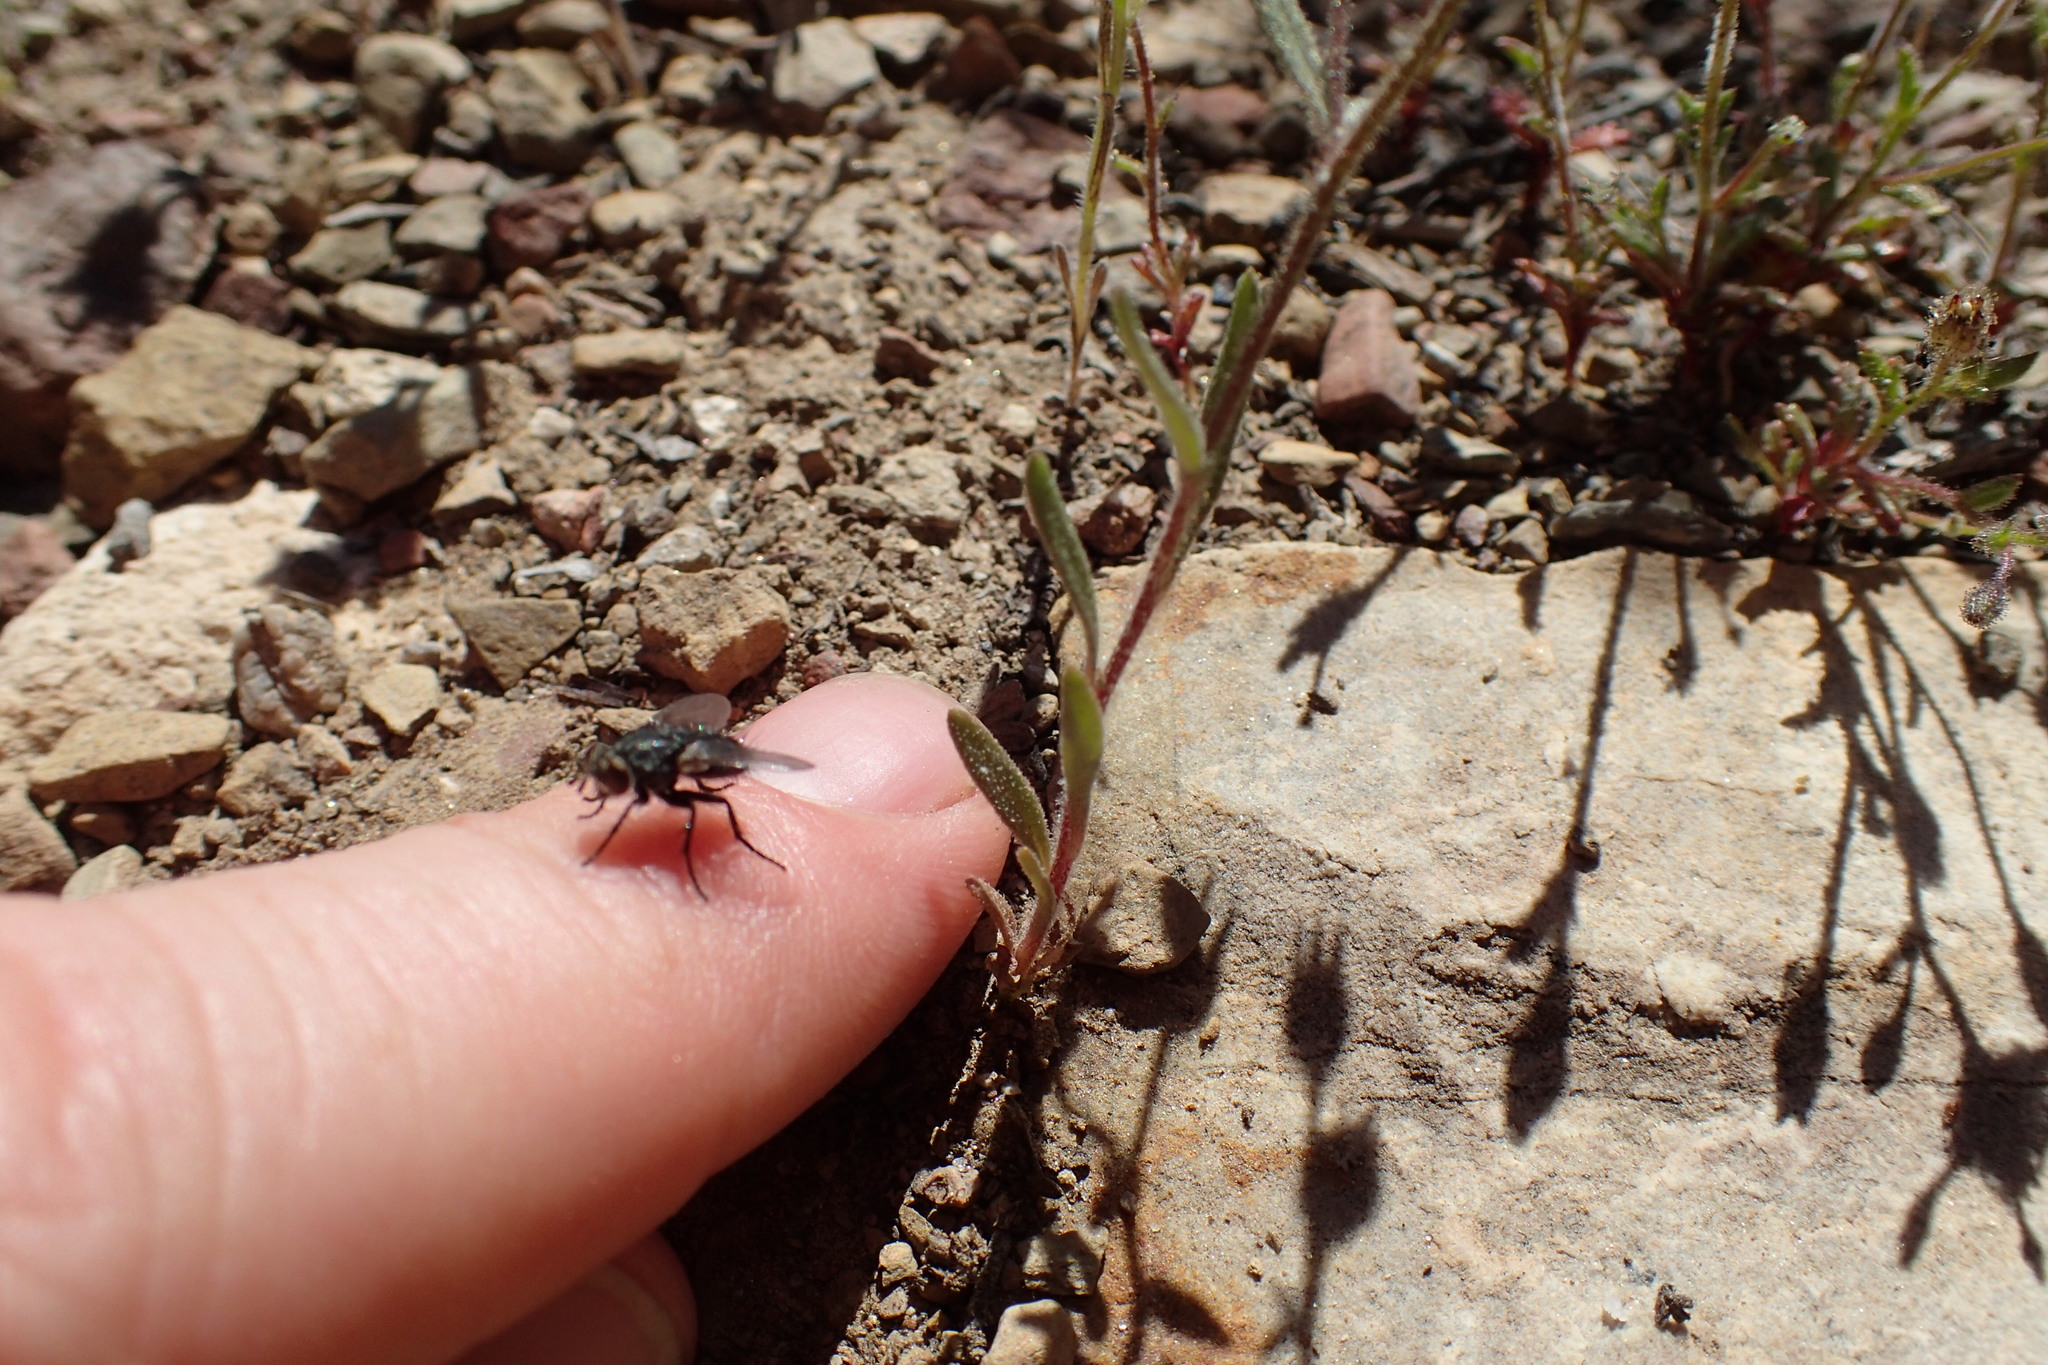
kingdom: Plantae
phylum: Tracheophyta
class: Magnoliopsida
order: Ericales
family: Polemoniaceae
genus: Allophyllum
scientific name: Allophyllum gilioides
